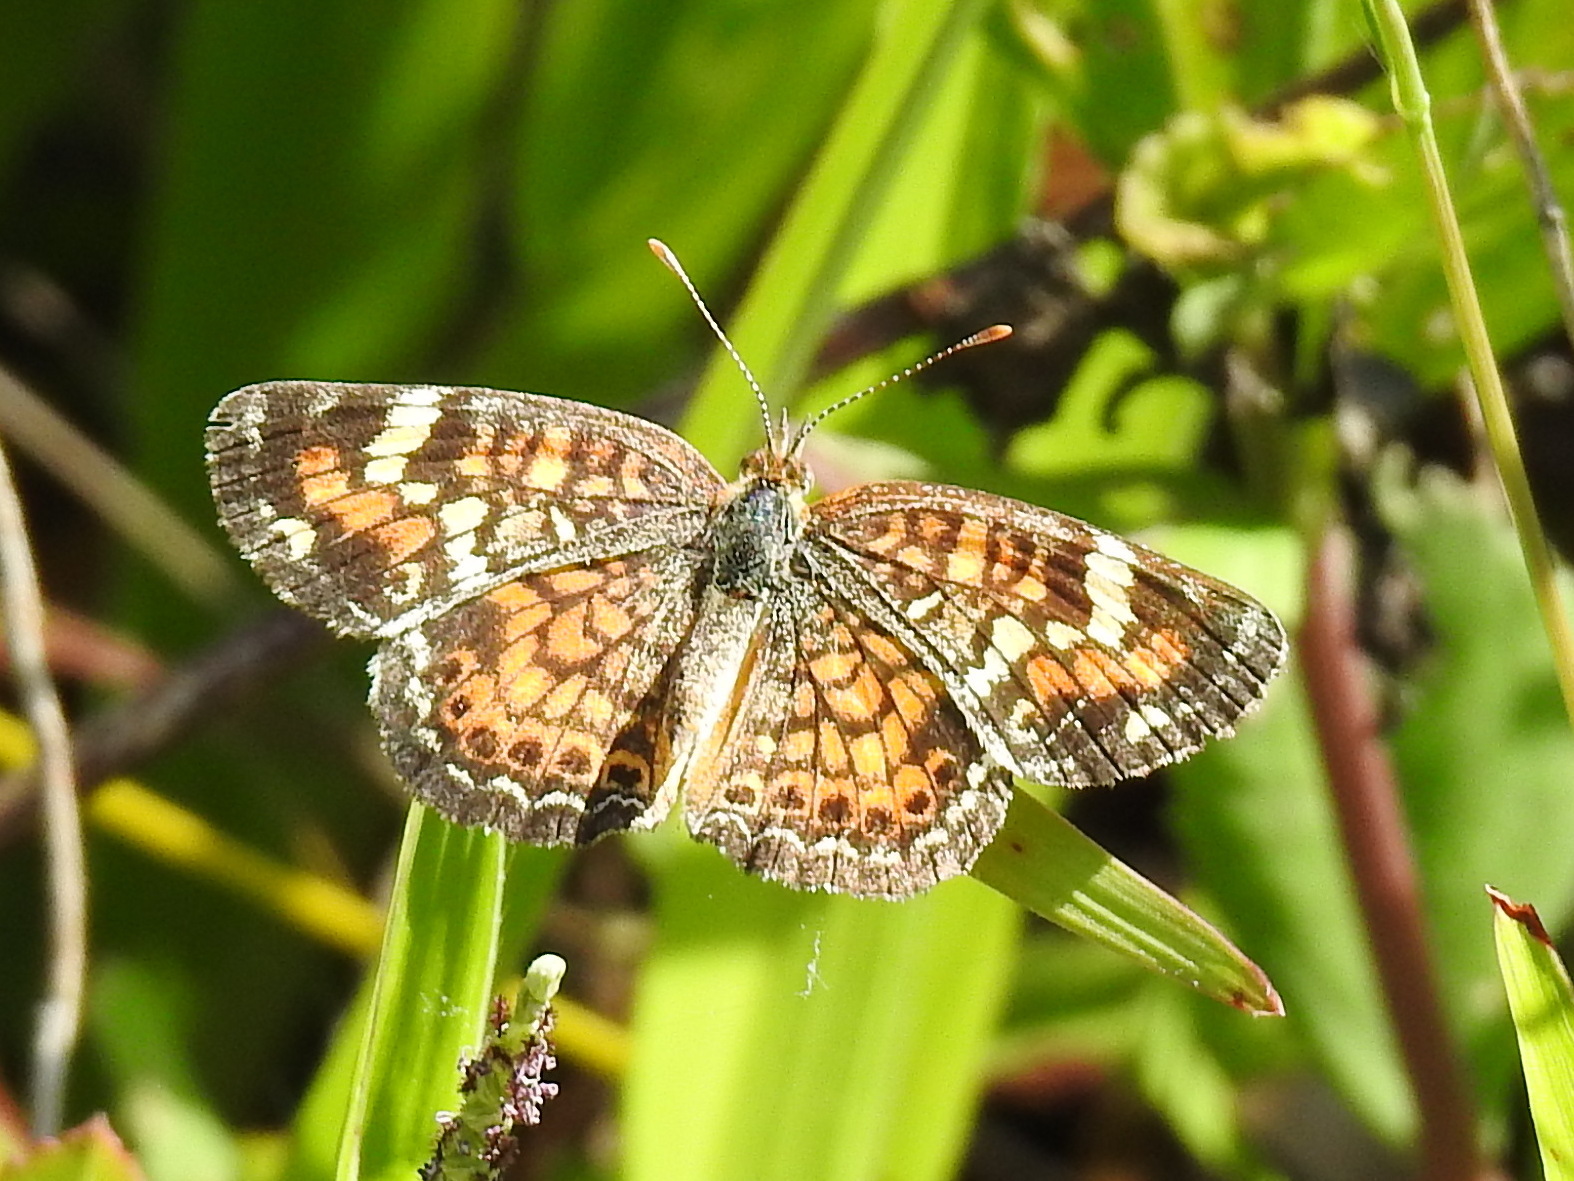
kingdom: Animalia
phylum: Arthropoda
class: Insecta
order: Lepidoptera
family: Nymphalidae
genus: Phyciodes
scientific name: Phyciodes phaon
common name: Phaon crescent
